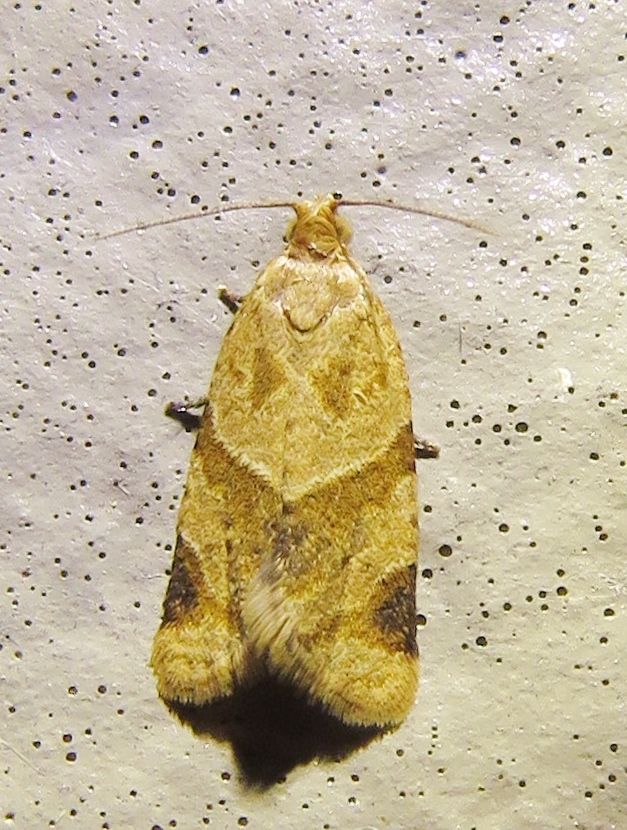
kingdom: Animalia
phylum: Arthropoda
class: Insecta
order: Lepidoptera
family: Tortricidae
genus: Clepsis
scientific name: Clepsis peritana
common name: Garden tortrix
